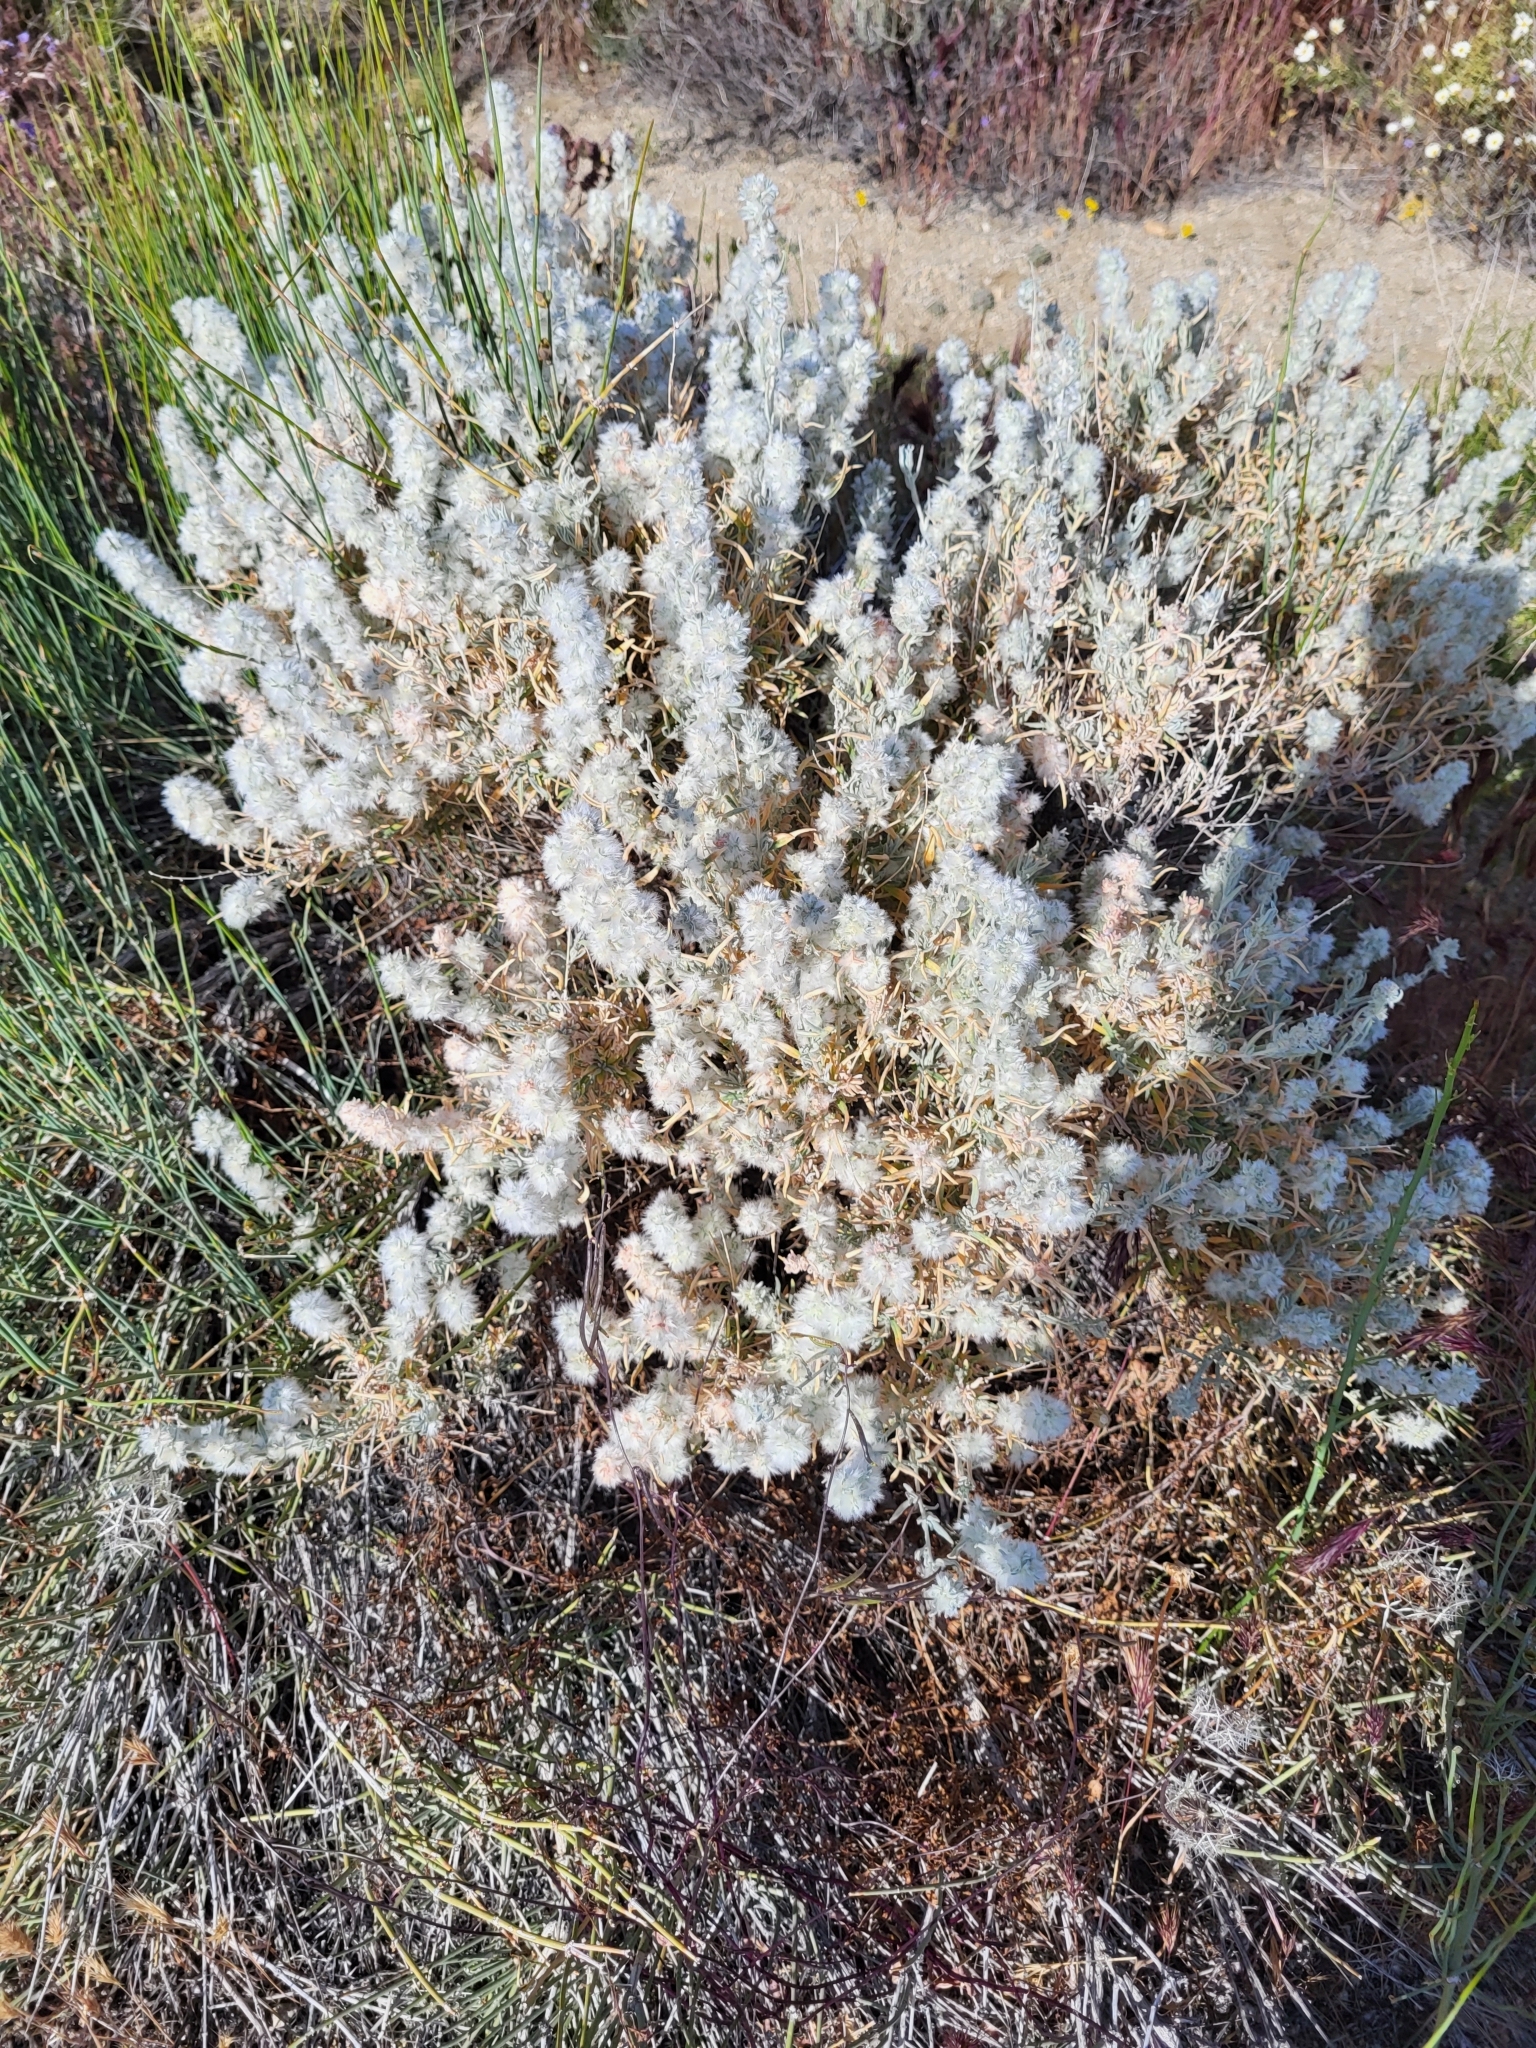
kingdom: Plantae
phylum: Tracheophyta
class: Magnoliopsida
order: Caryophyllales
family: Amaranthaceae
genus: Krascheninnikovia
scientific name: Krascheninnikovia lanata
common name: Winterfat
